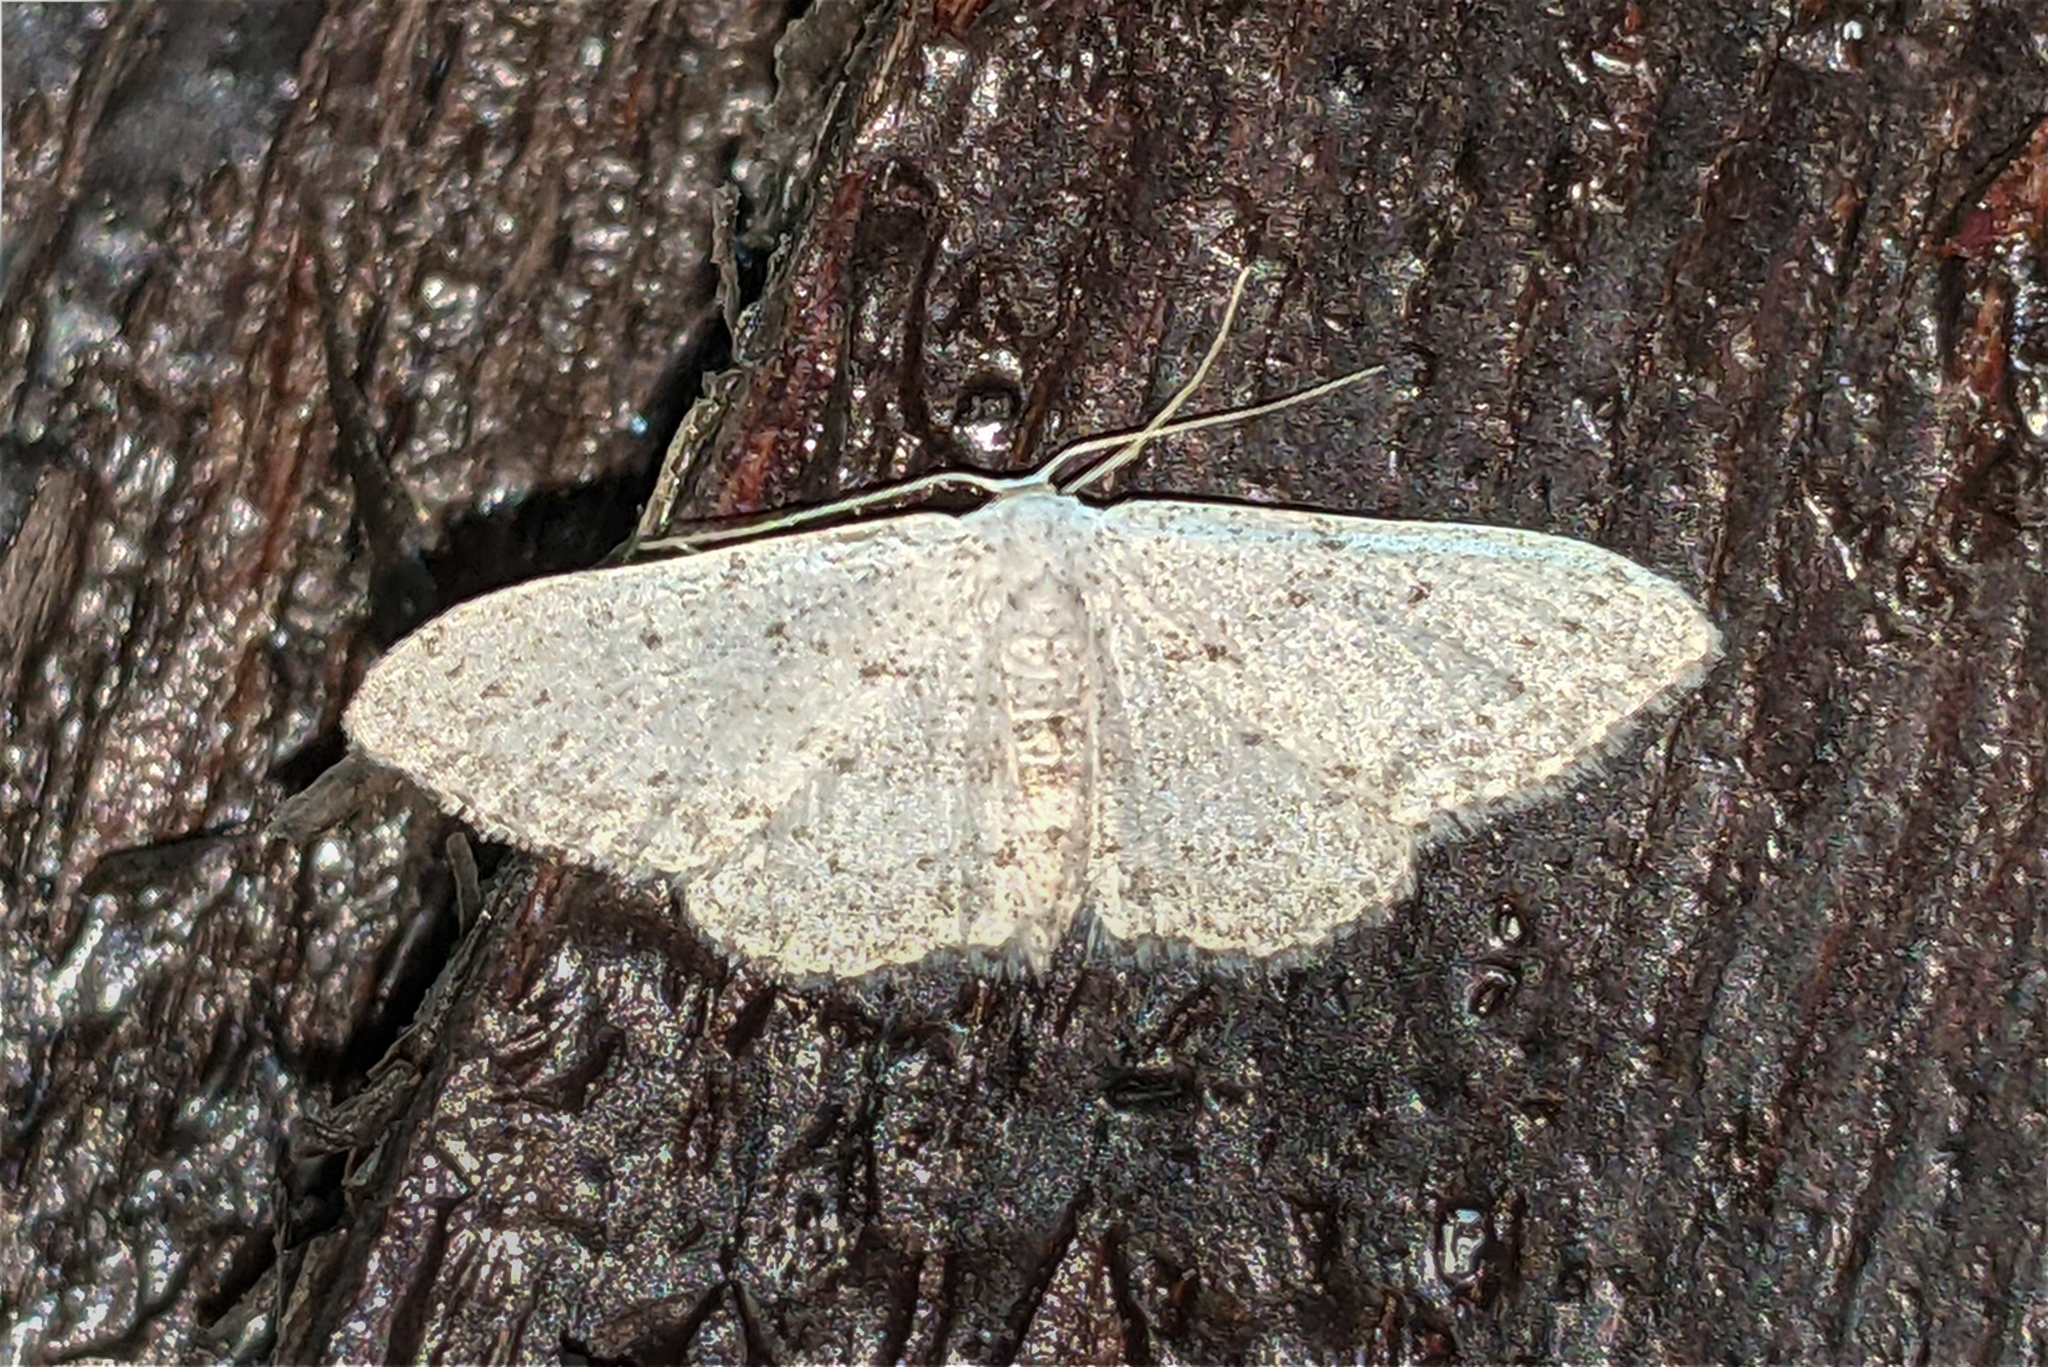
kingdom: Animalia
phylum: Arthropoda
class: Insecta
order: Lepidoptera
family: Geometridae
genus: Idaea
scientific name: Idaea seriata
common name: Small dusty wave
